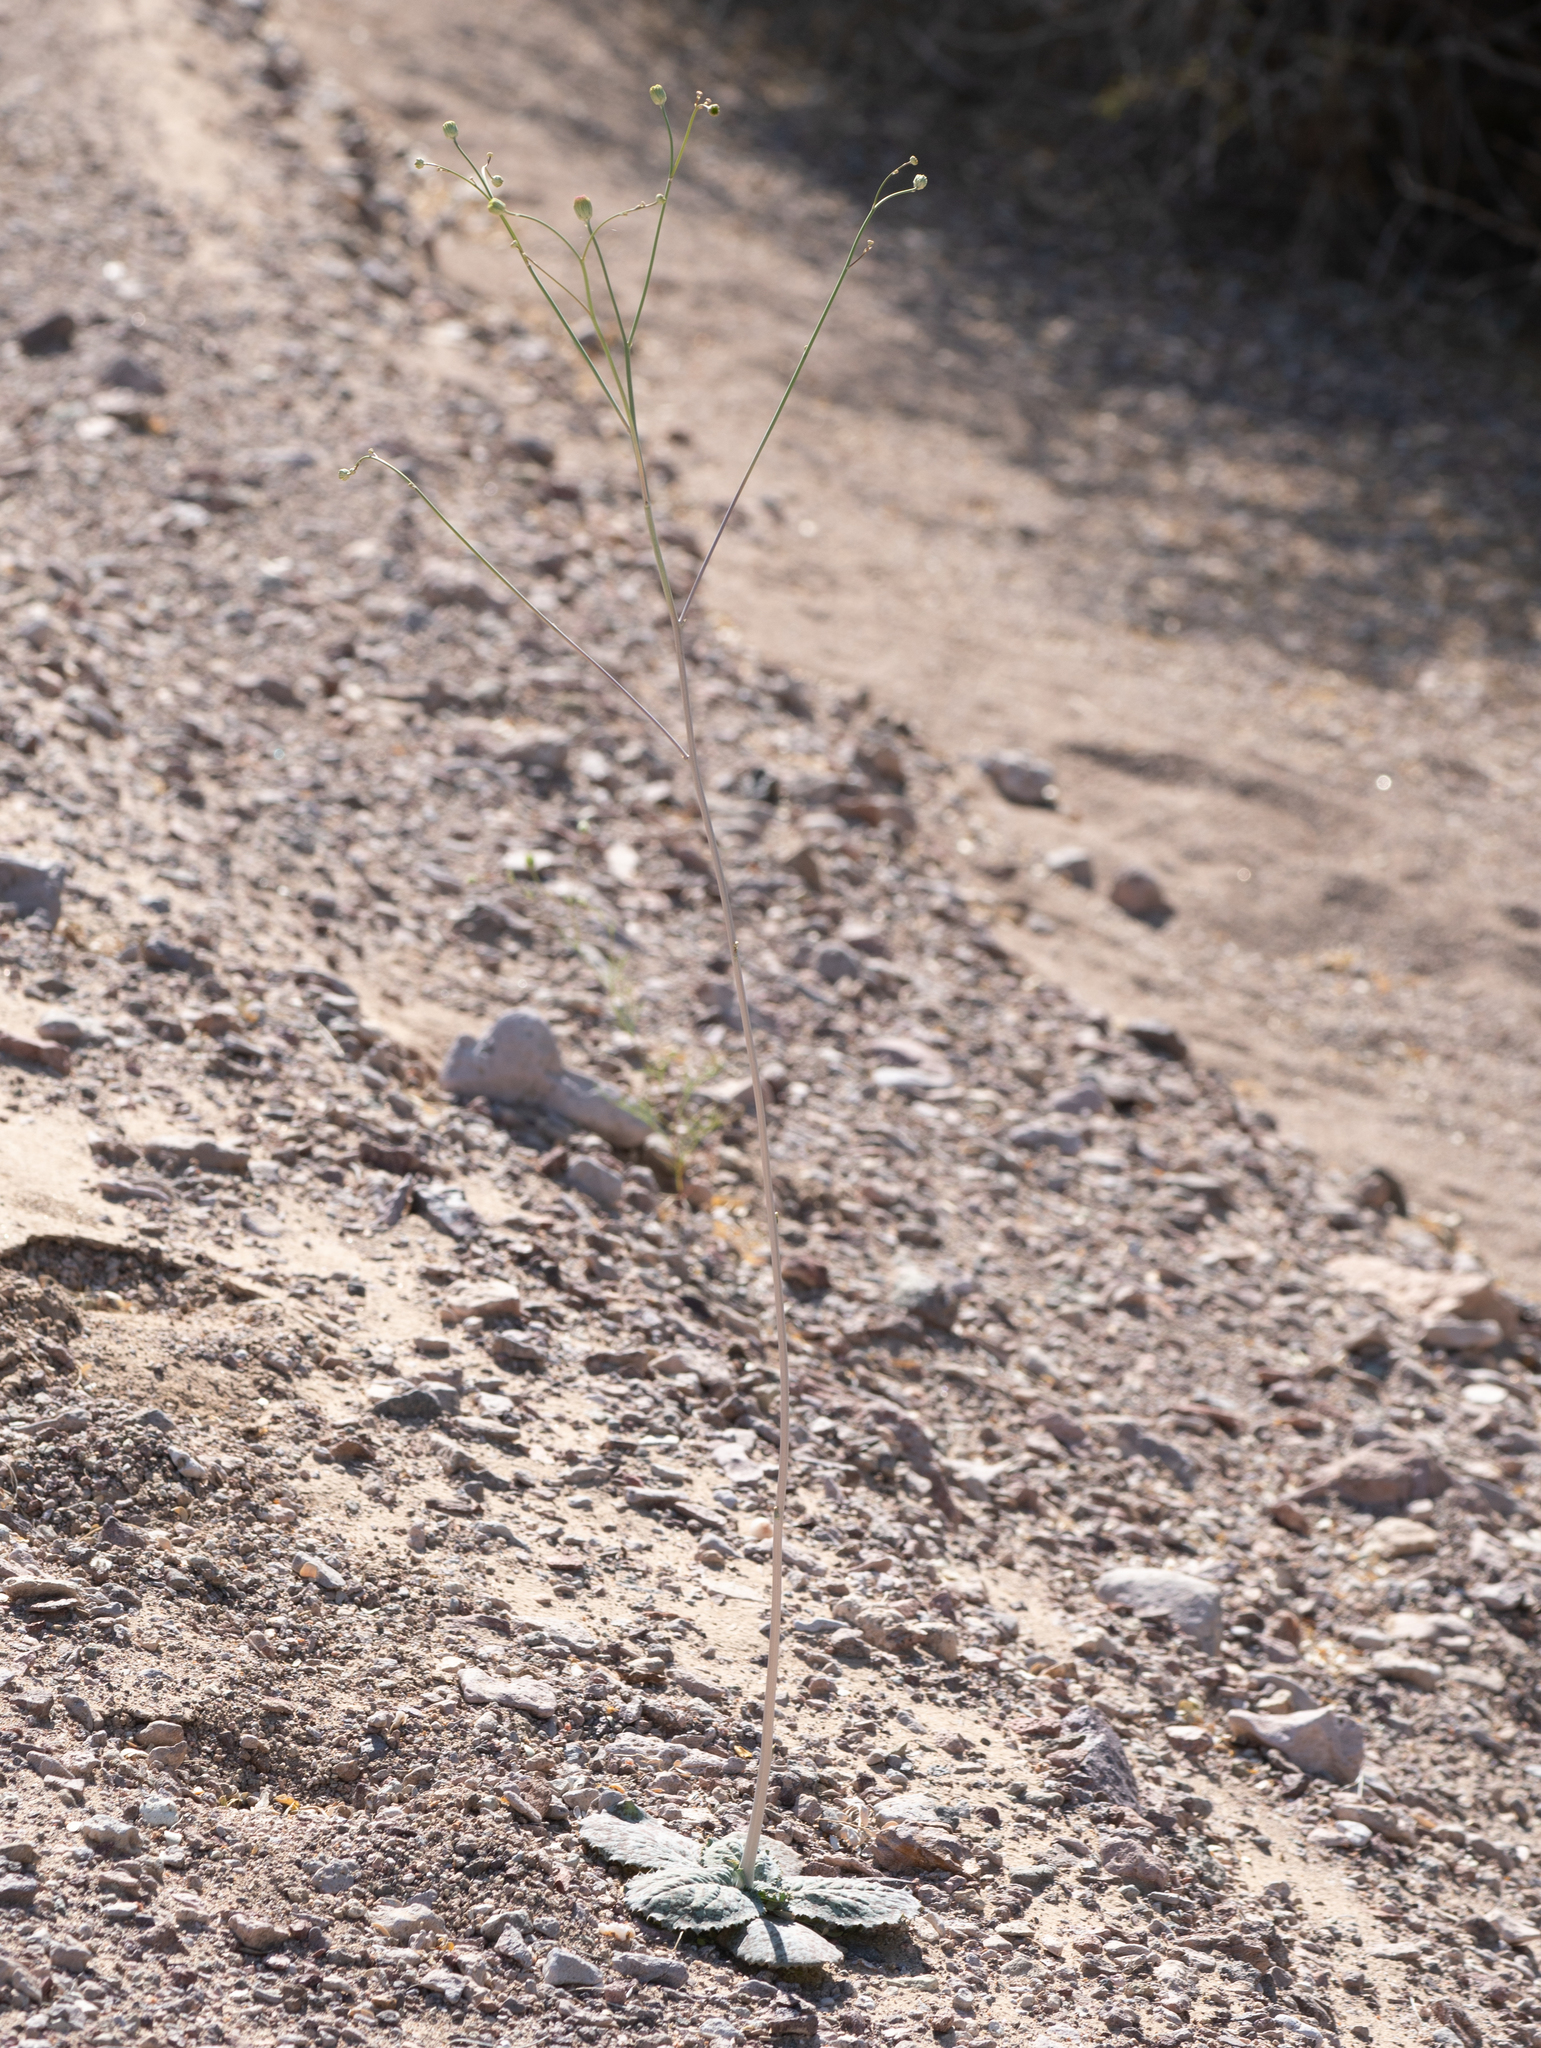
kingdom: Plantae
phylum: Tracheophyta
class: Magnoliopsida
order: Asterales
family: Asteraceae
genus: Atrichoseris
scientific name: Atrichoseris platyphylla
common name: Tobaccoweed
